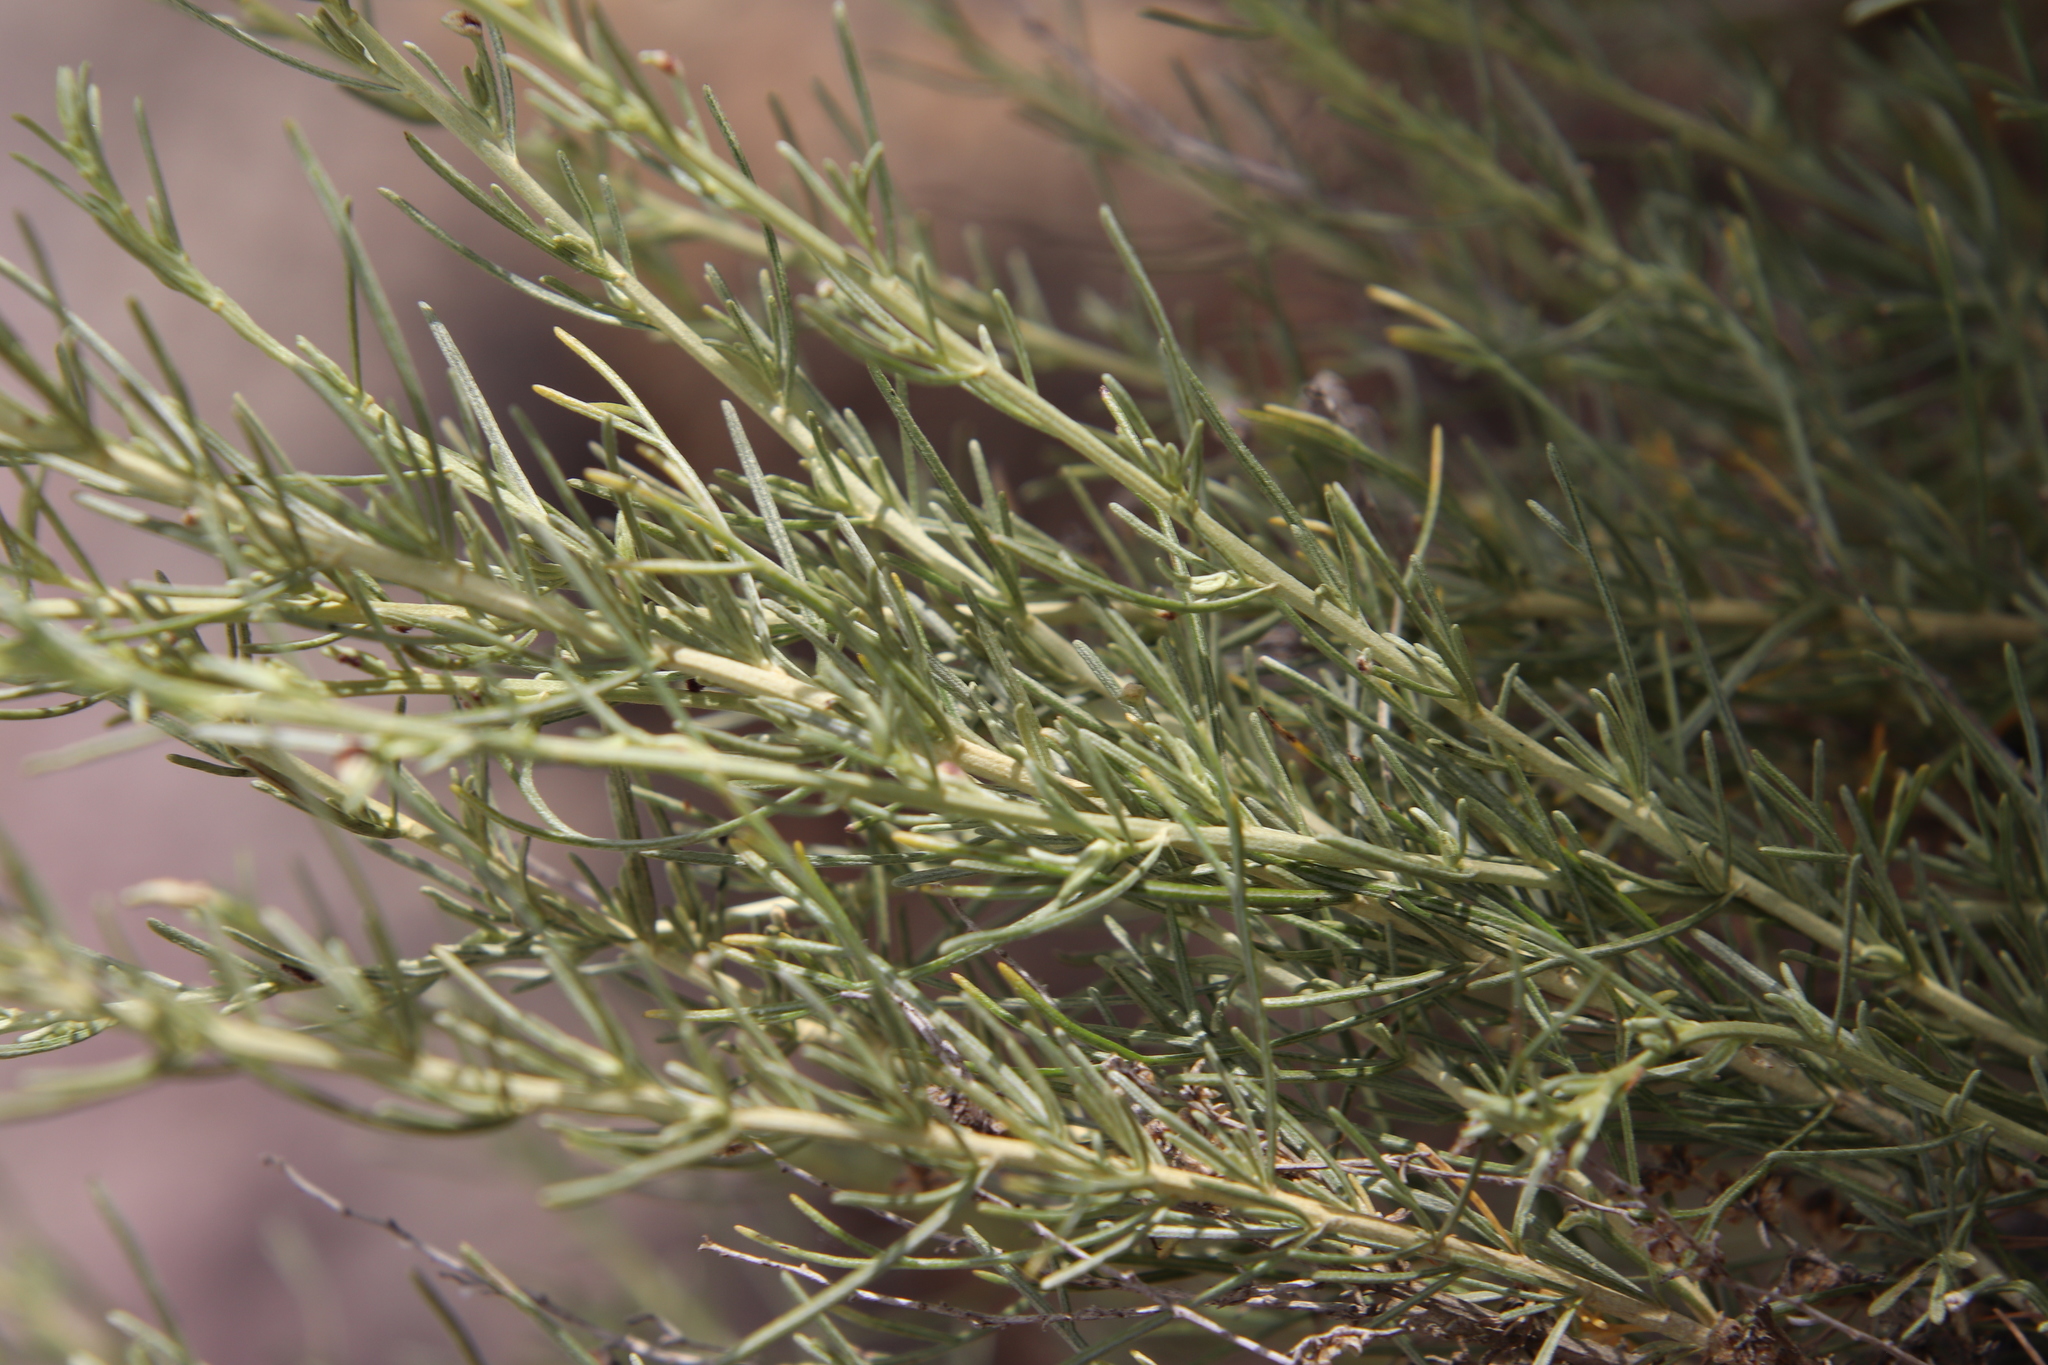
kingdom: Plantae
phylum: Tracheophyta
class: Magnoliopsida
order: Asterales
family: Asteraceae
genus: Artemisia
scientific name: Artemisia californica
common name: California sagebrush
